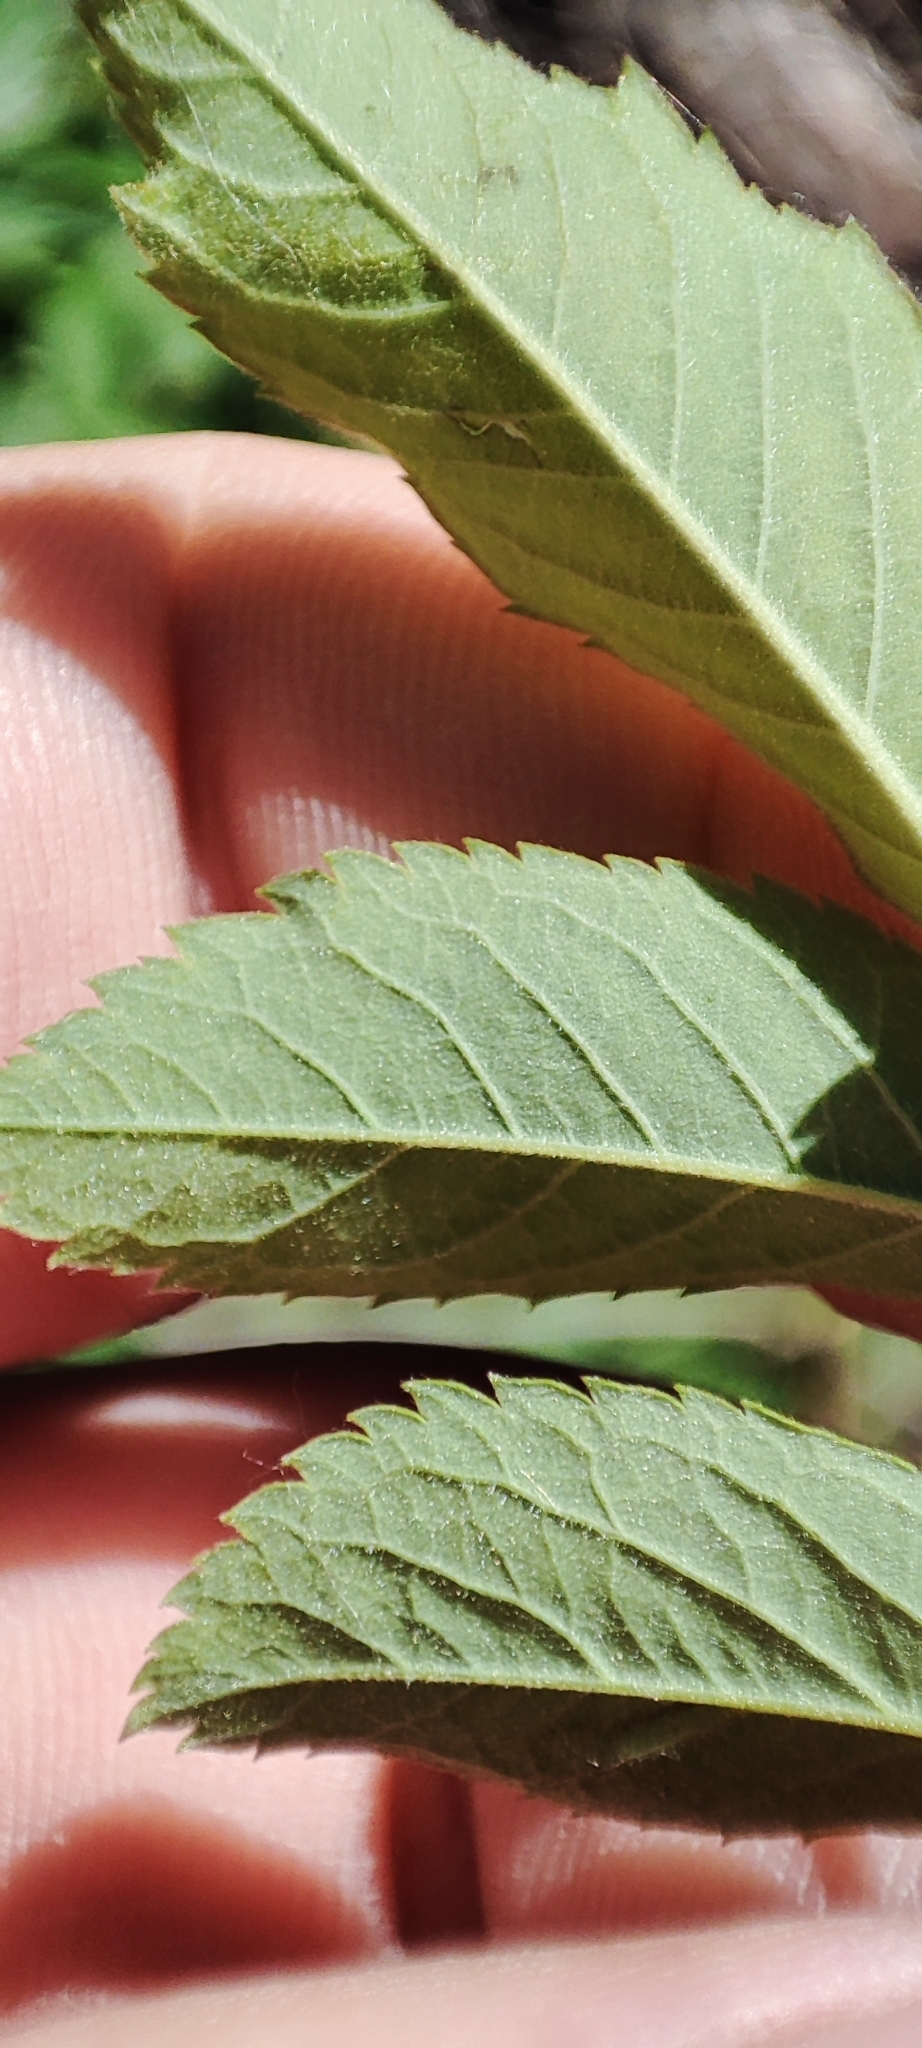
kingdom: Plantae
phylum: Tracheophyta
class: Magnoliopsida
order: Rosales
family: Rosaceae
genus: Rosa
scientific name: Rosa majalis
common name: Cinnamon rose
